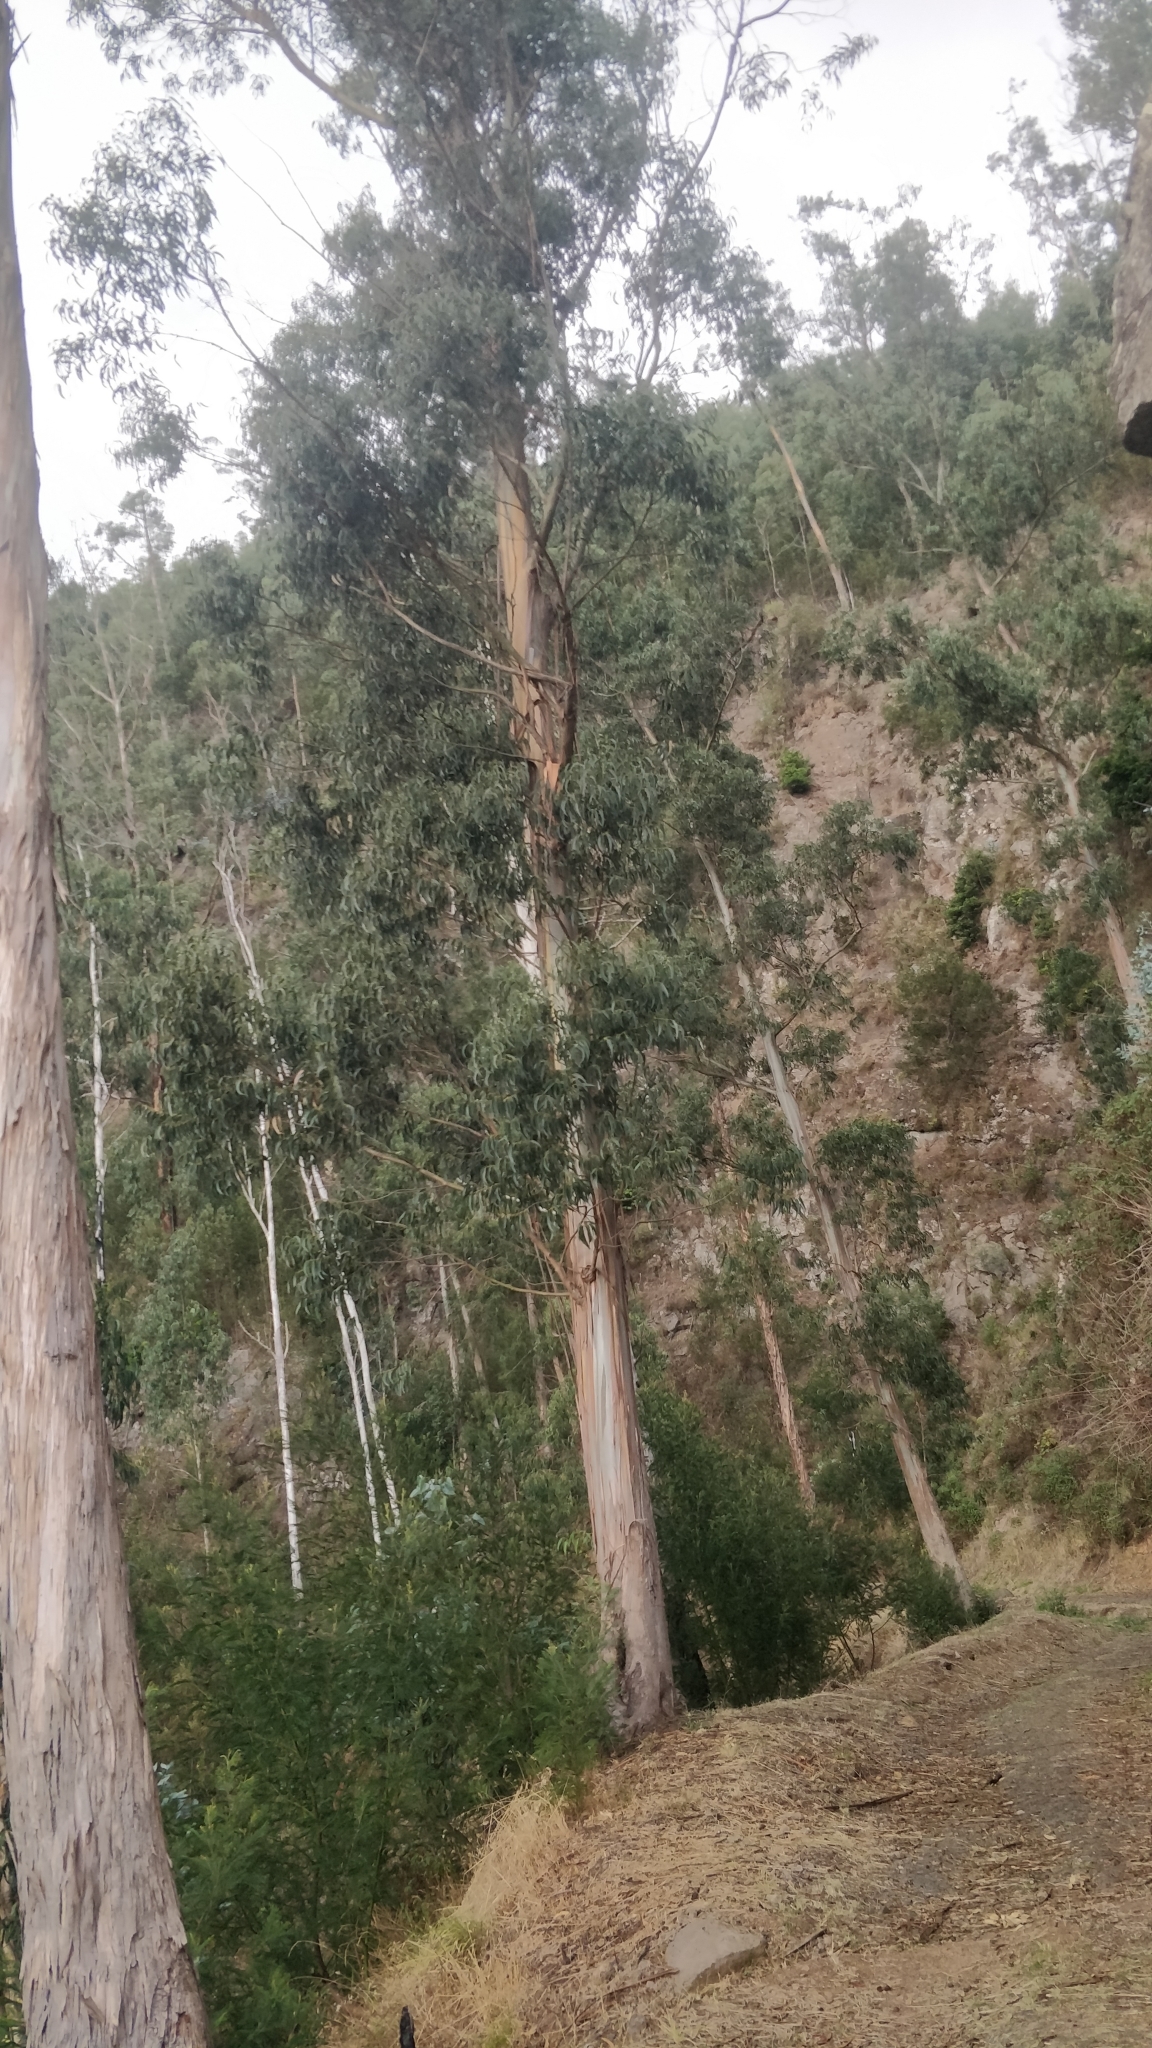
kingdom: Plantae
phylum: Tracheophyta
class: Magnoliopsida
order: Myrtales
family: Myrtaceae
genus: Eucalyptus
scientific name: Eucalyptus globulus
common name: Southern blue-gum
